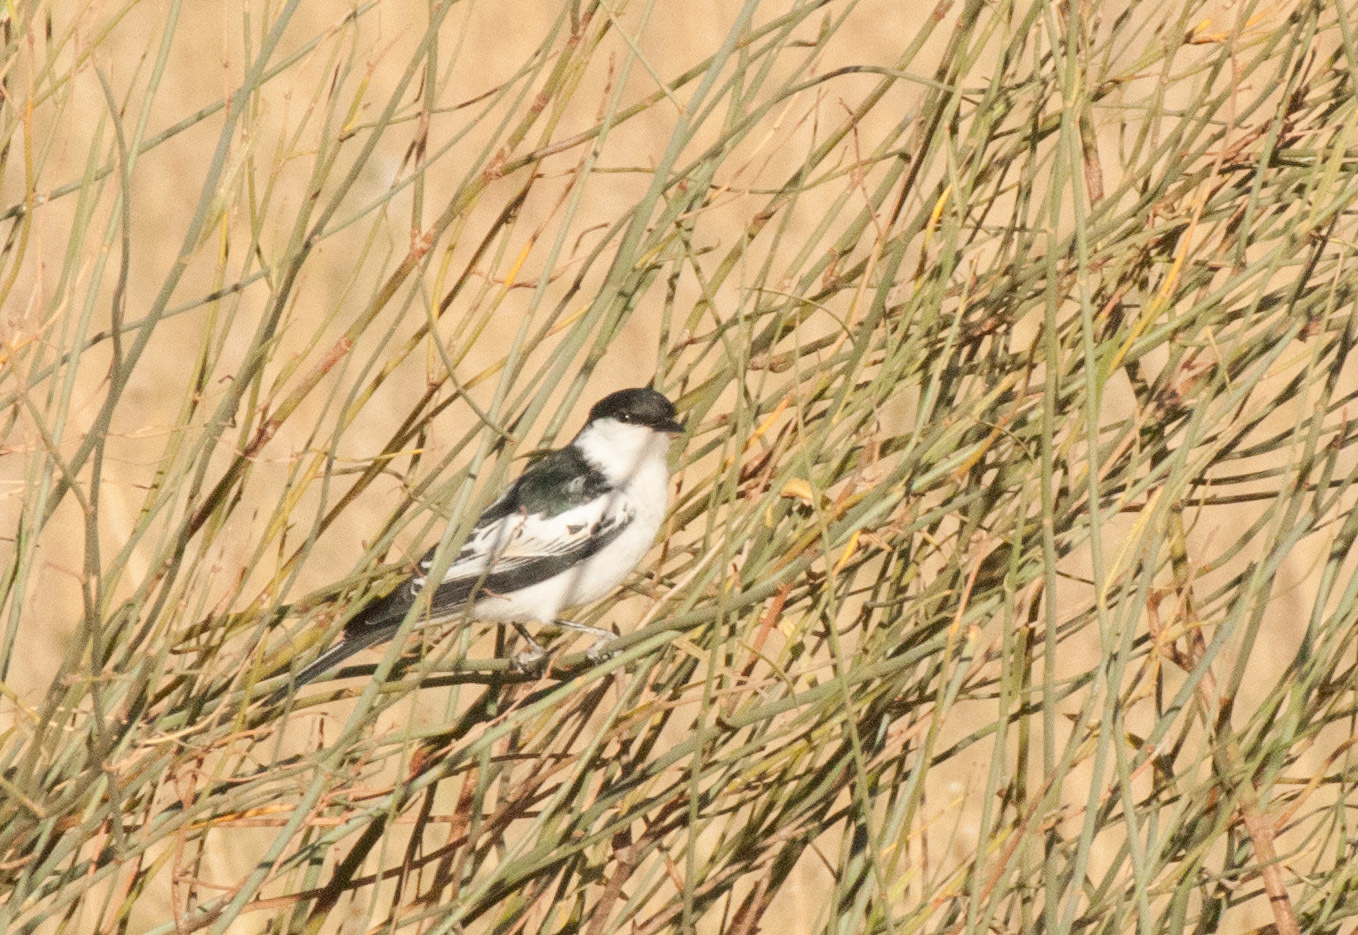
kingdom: Animalia
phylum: Chordata
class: Aves
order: Passeriformes
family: Campephagidae
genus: Lalage
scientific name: Lalage tricolor
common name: White-winged triller
